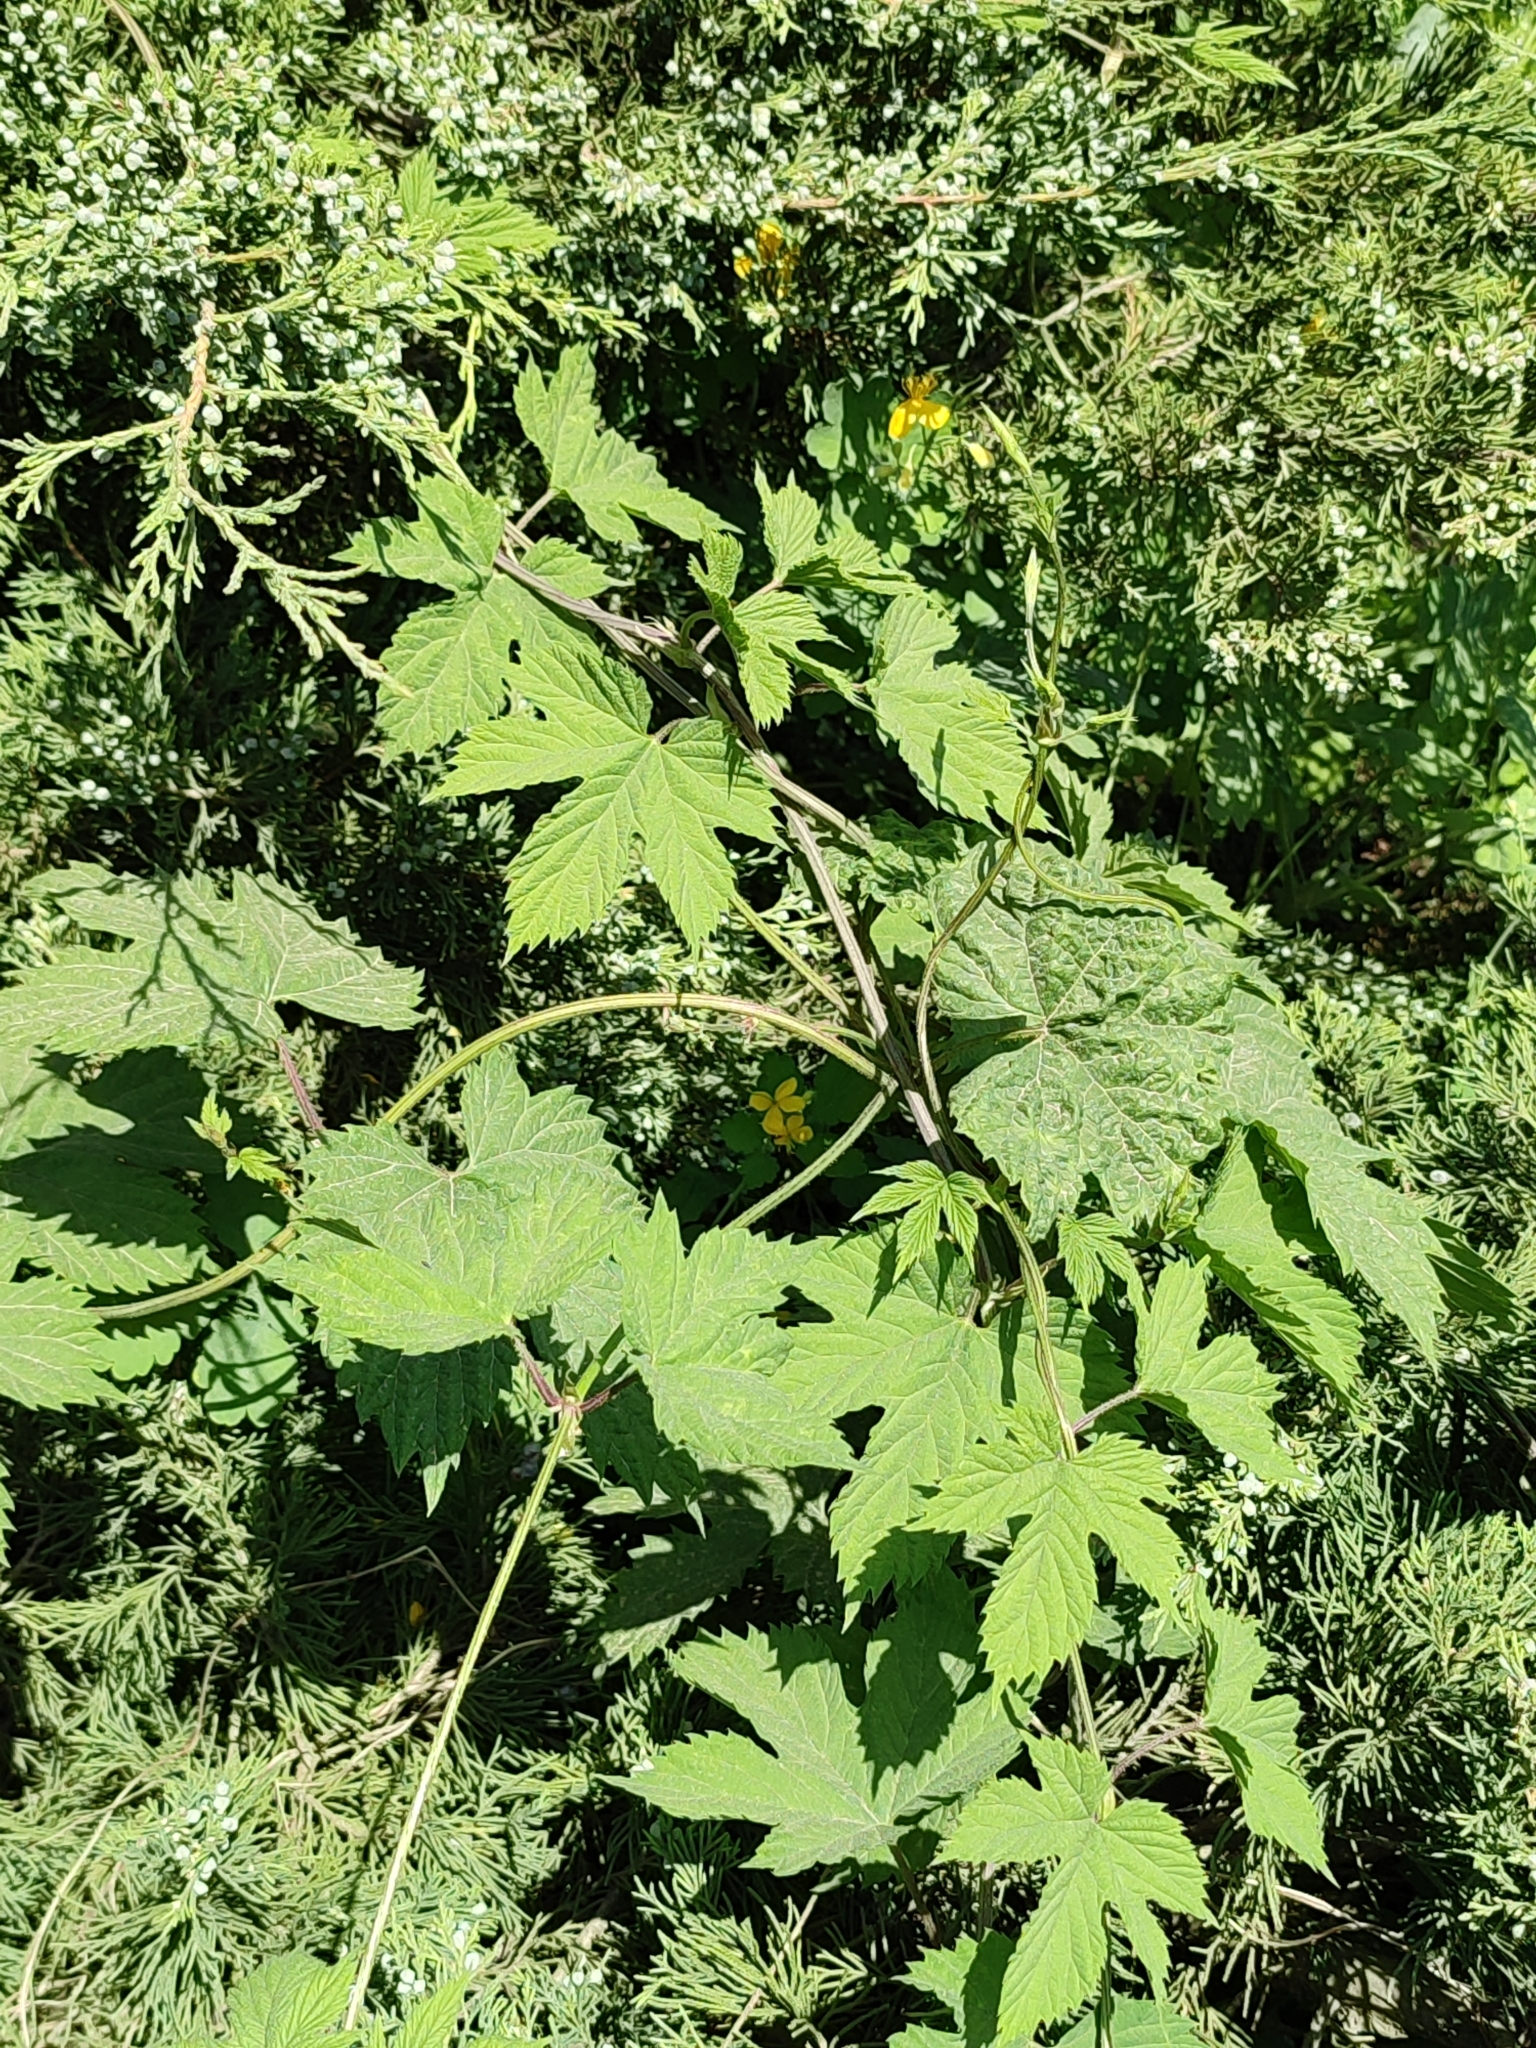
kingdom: Plantae
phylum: Tracheophyta
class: Magnoliopsida
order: Rosales
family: Cannabaceae
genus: Humulus
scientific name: Humulus lupulus
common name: Hop
